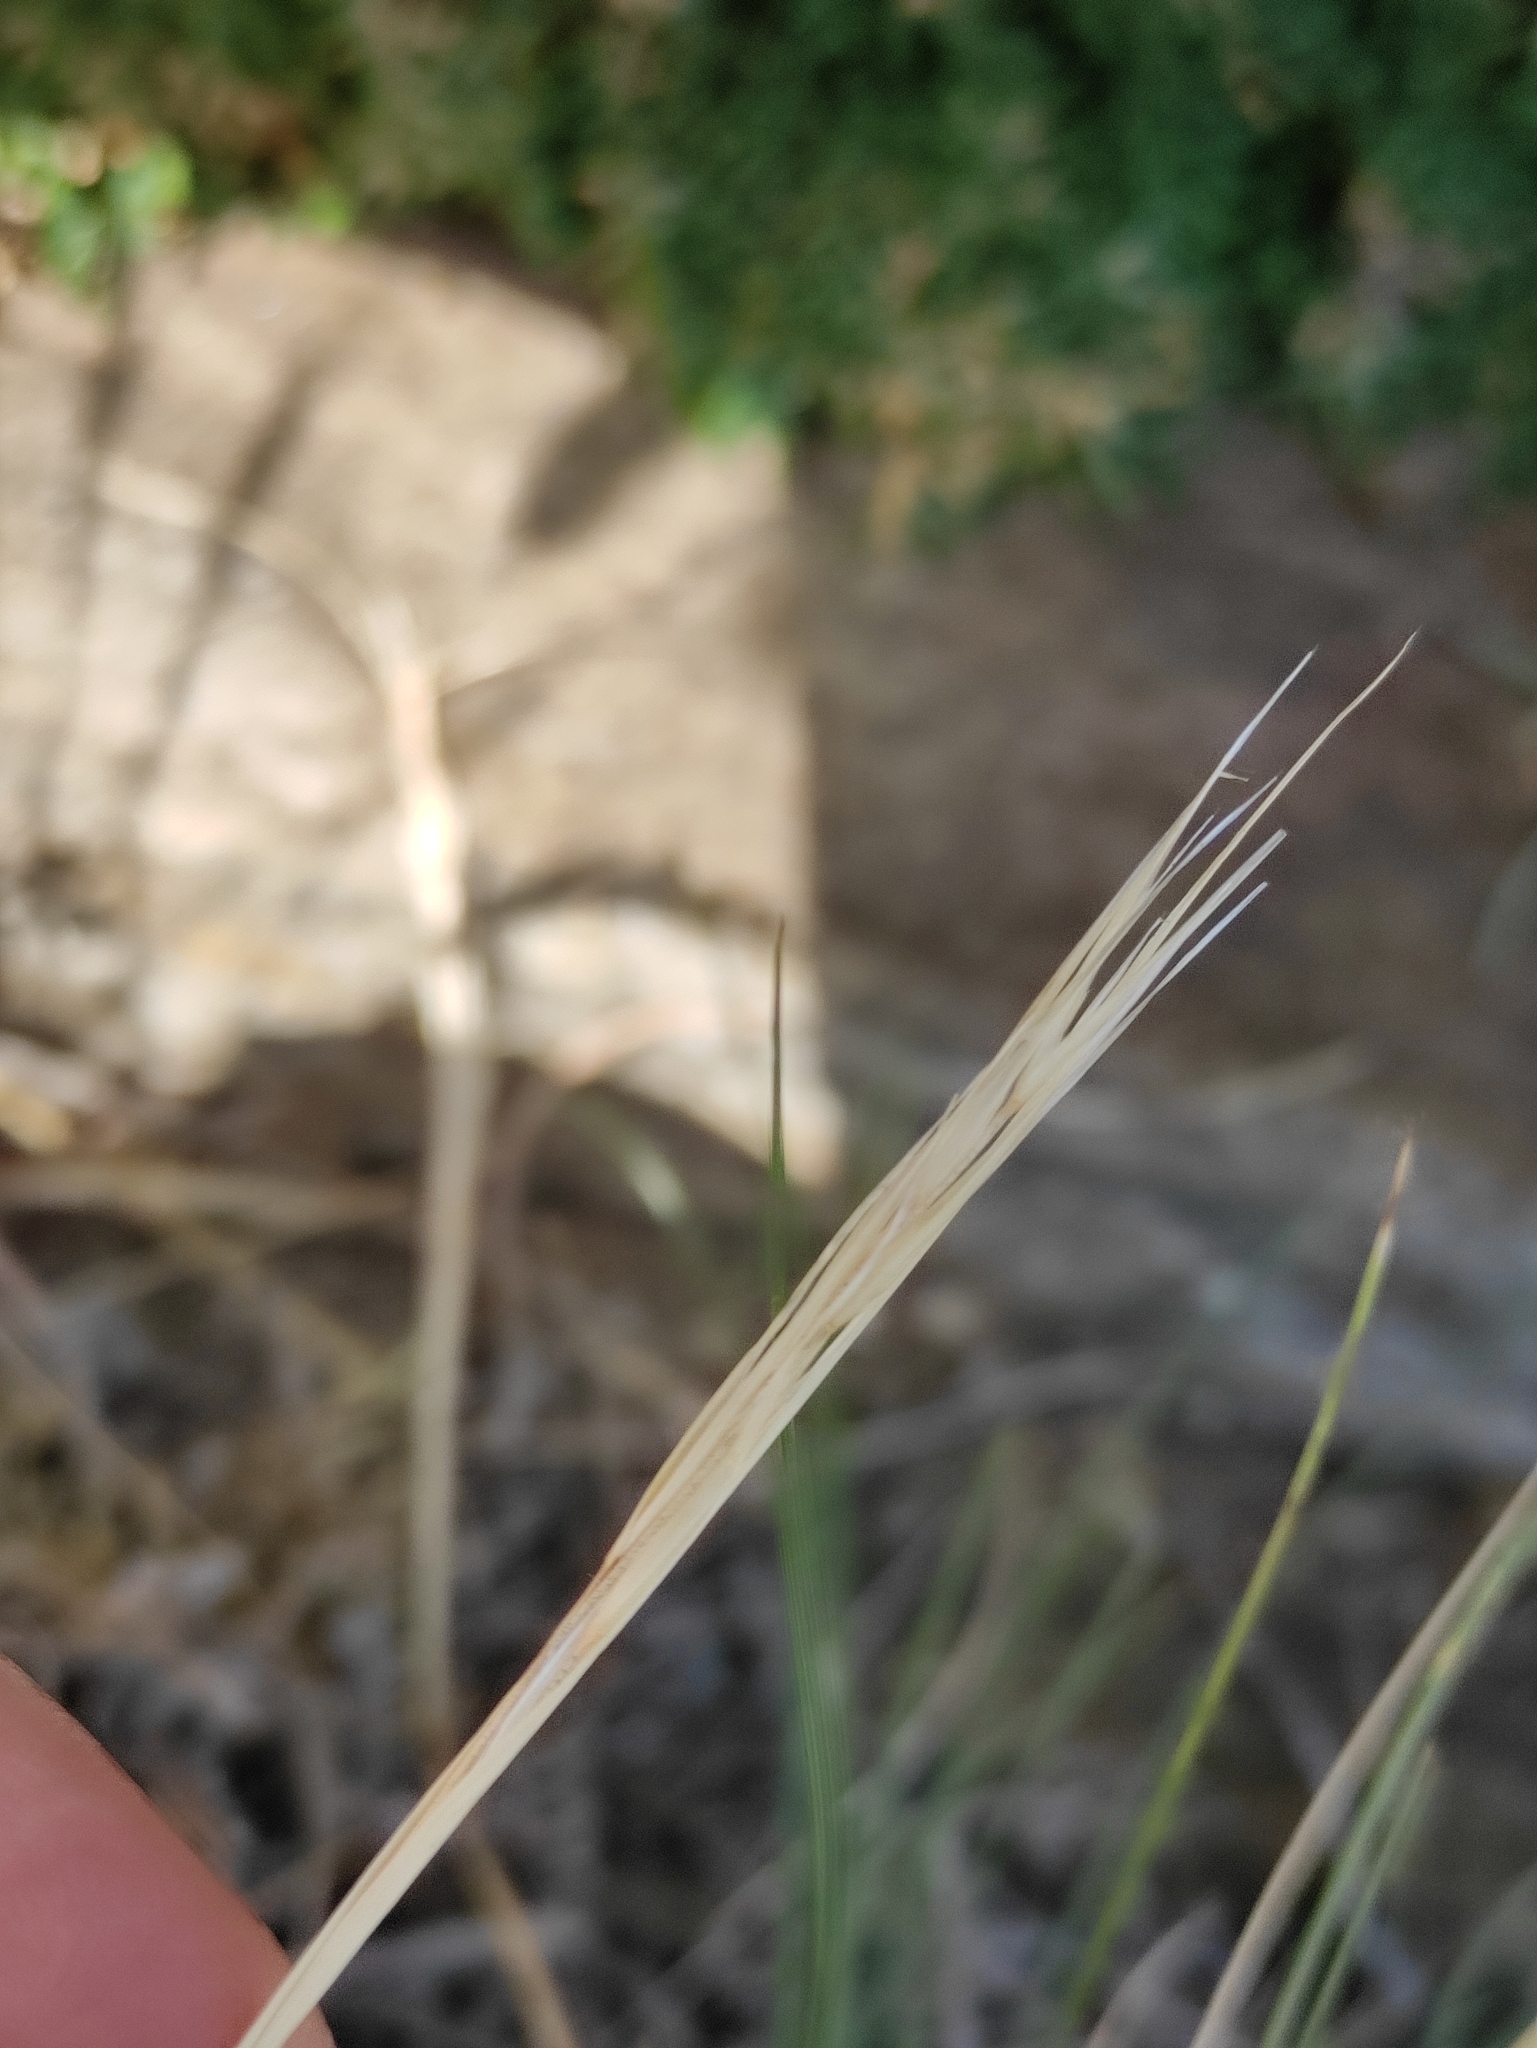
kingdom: Plantae
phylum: Tracheophyta
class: Liliopsida
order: Poales
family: Poaceae
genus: Stipa
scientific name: Stipa glareosa
